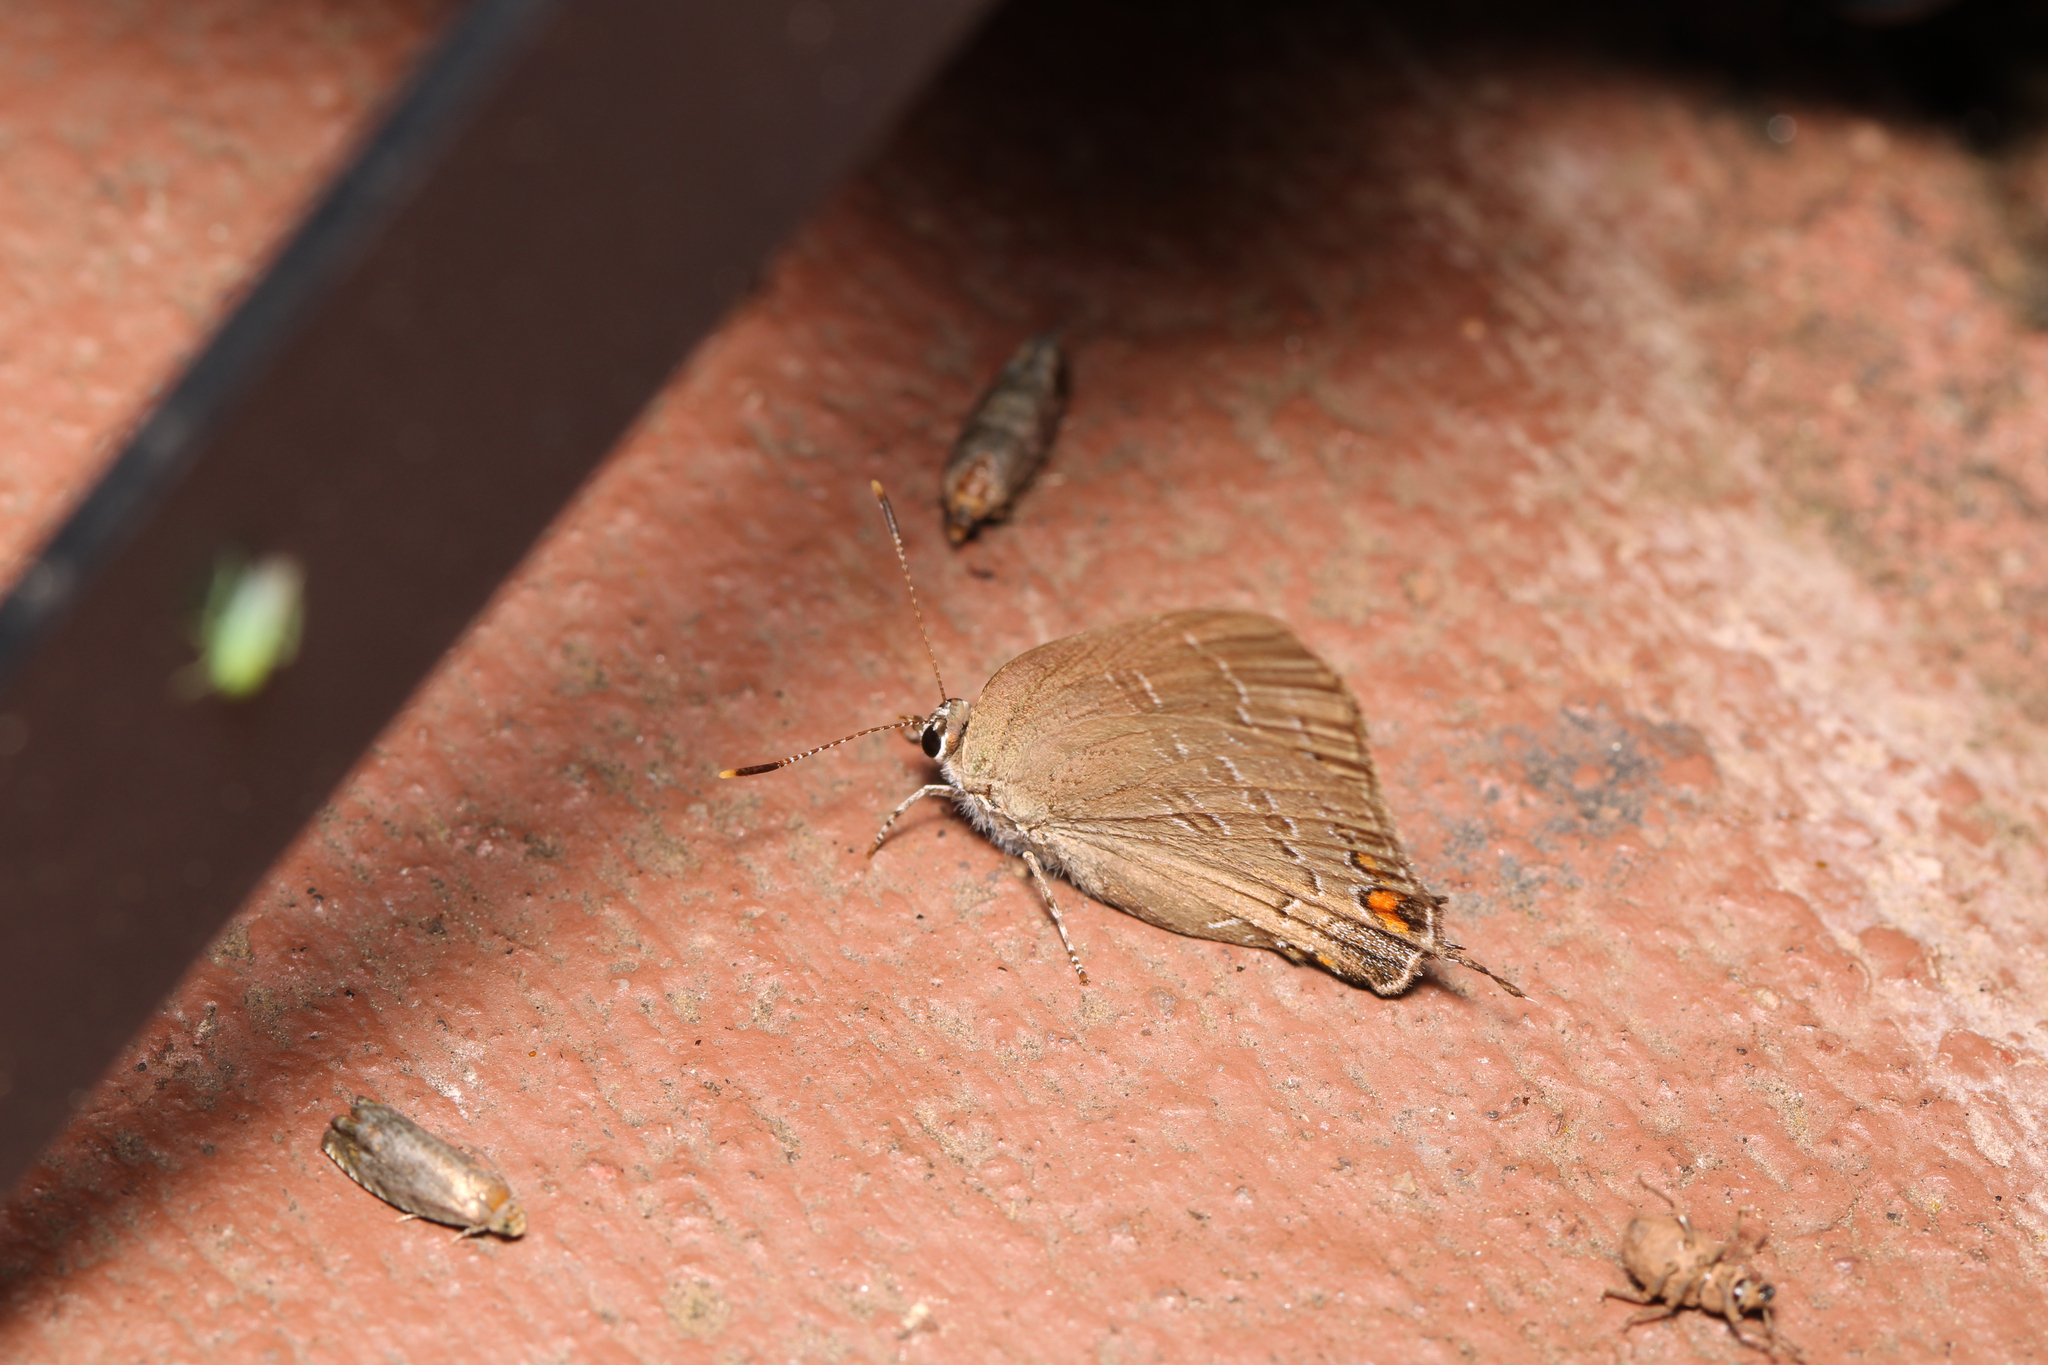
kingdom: Animalia
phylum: Arthropoda
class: Insecta
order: Lepidoptera
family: Lycaenidae
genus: Satyrium
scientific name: Satyrium calanus
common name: Banded hairstreak
